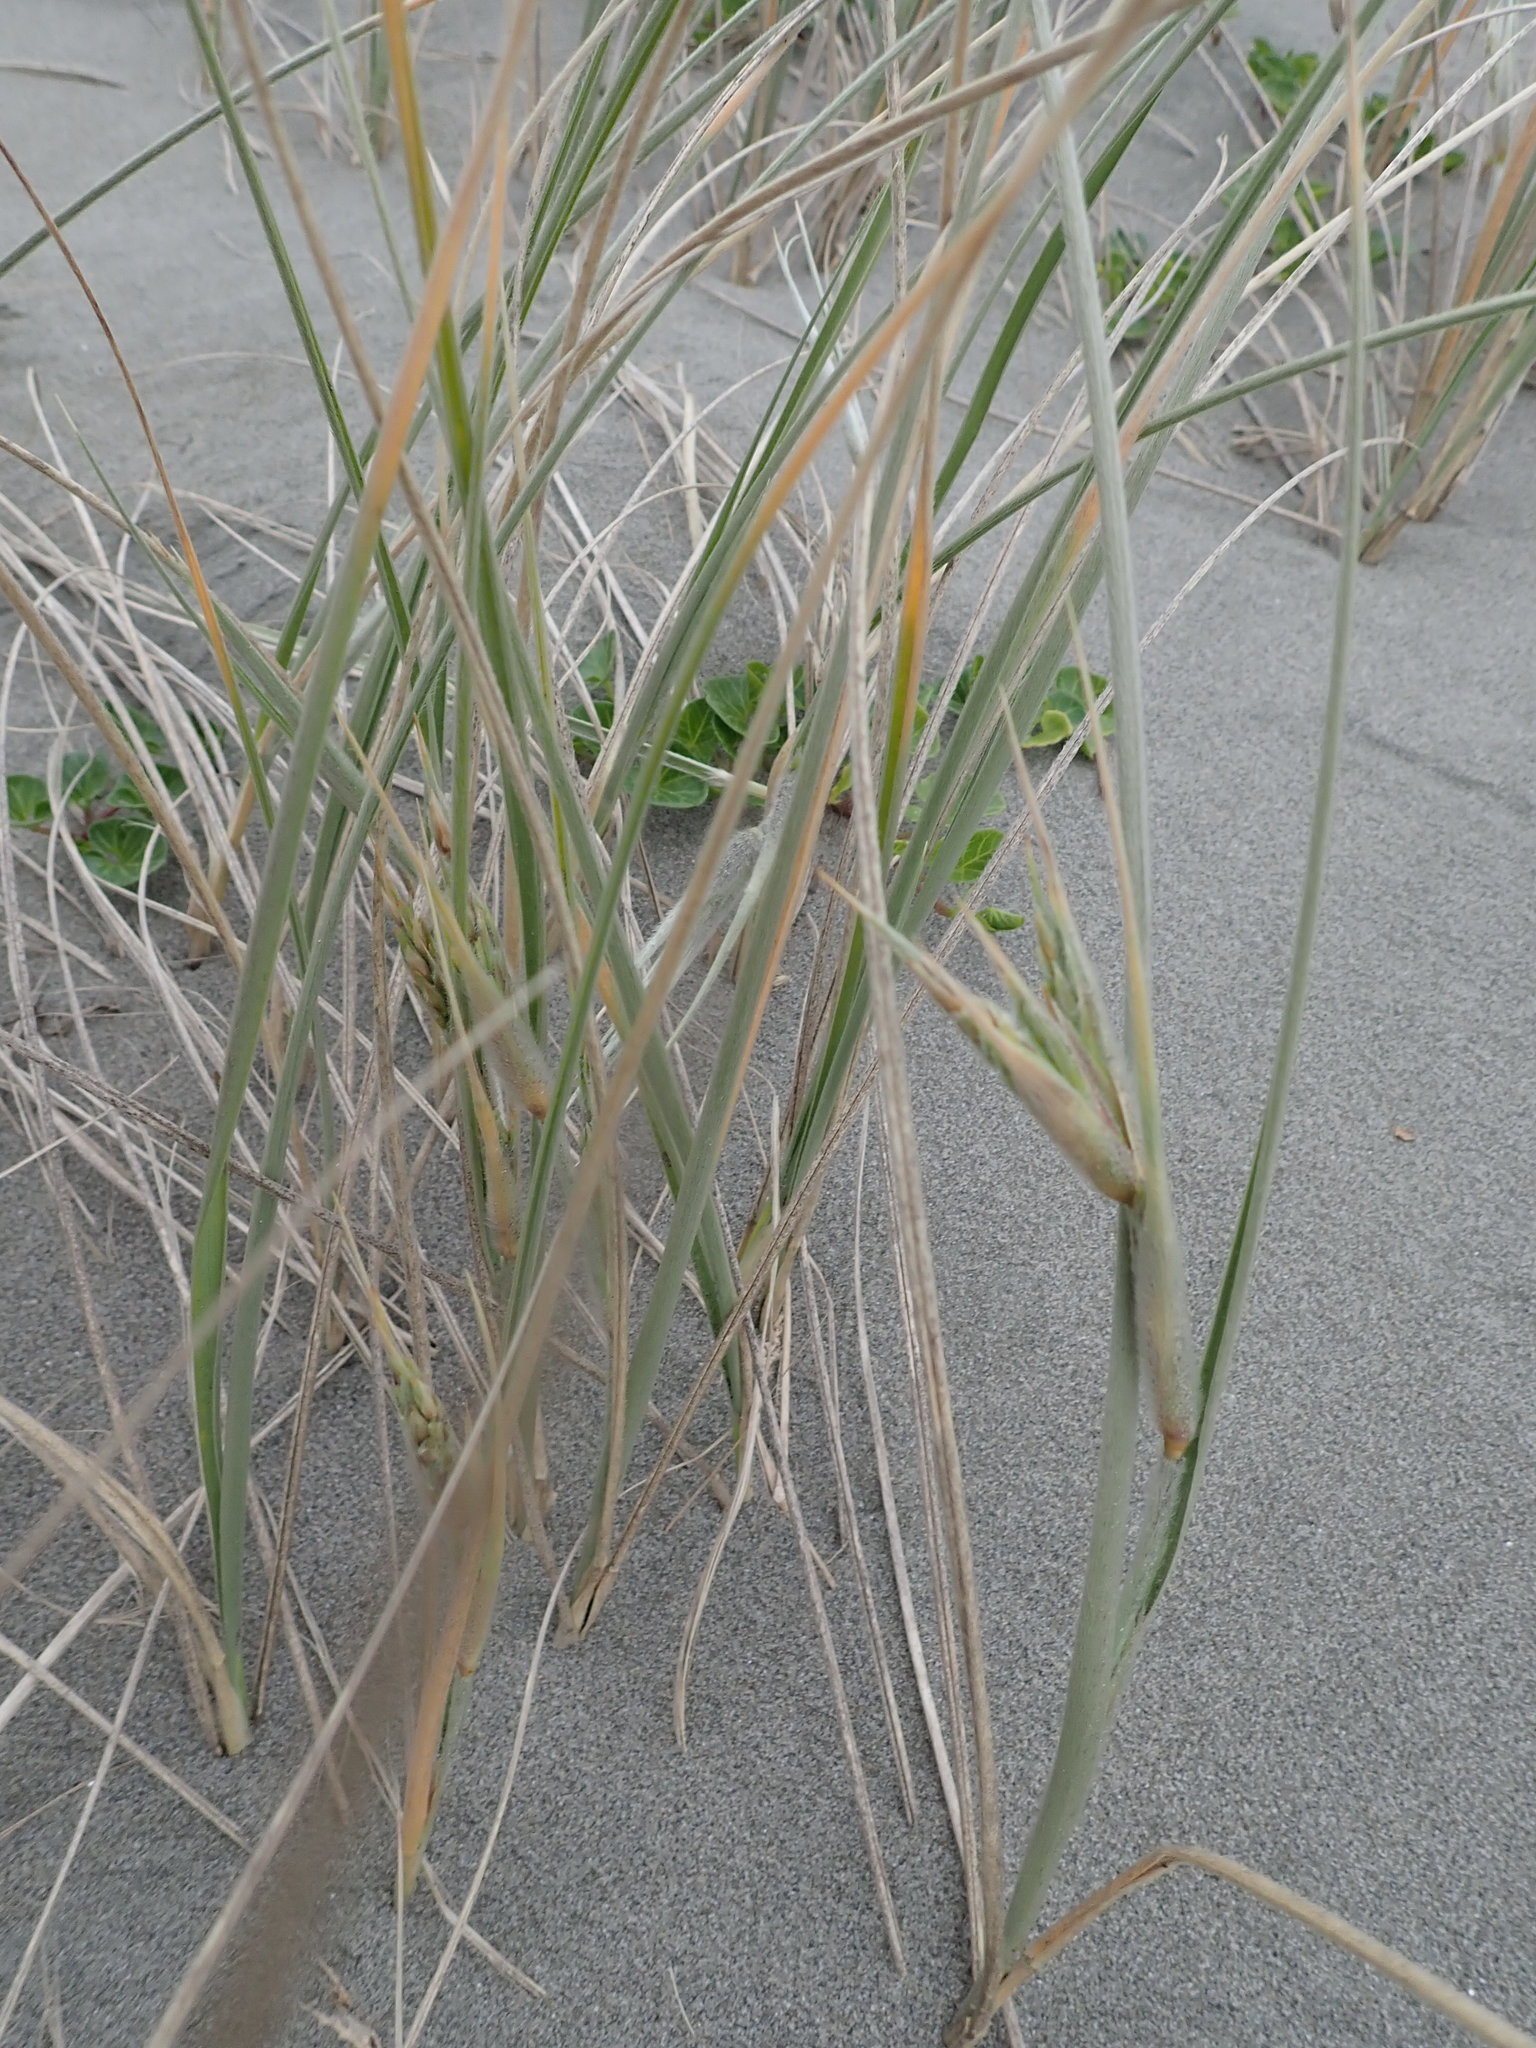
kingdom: Plantae
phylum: Tracheophyta
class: Liliopsida
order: Poales
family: Poaceae
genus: Spinifex
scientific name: Spinifex sericeus
